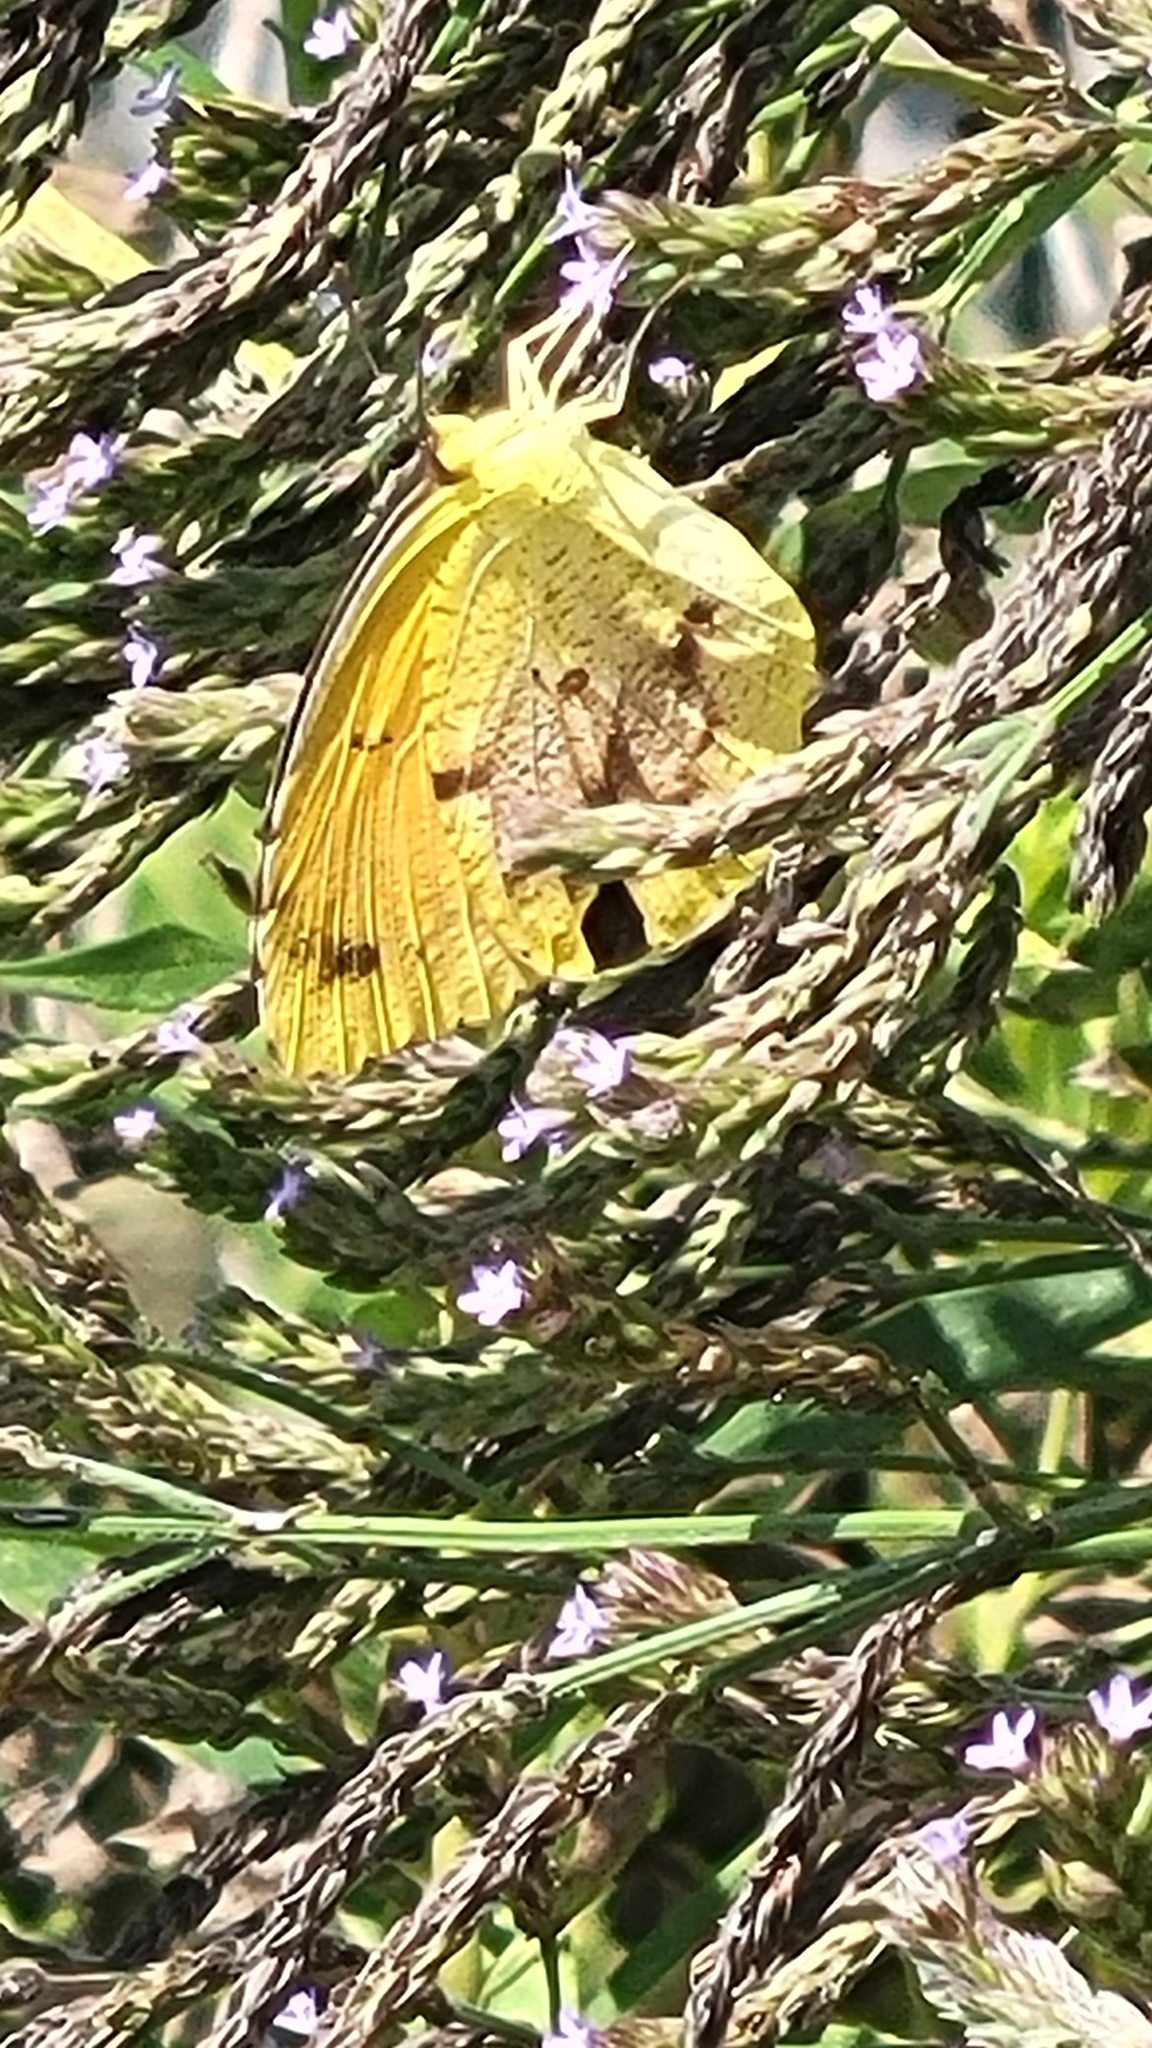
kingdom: Animalia
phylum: Arthropoda
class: Insecta
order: Lepidoptera
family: Pieridae
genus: Abaeis
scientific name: Abaeis nicippe
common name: Sleepy orange
